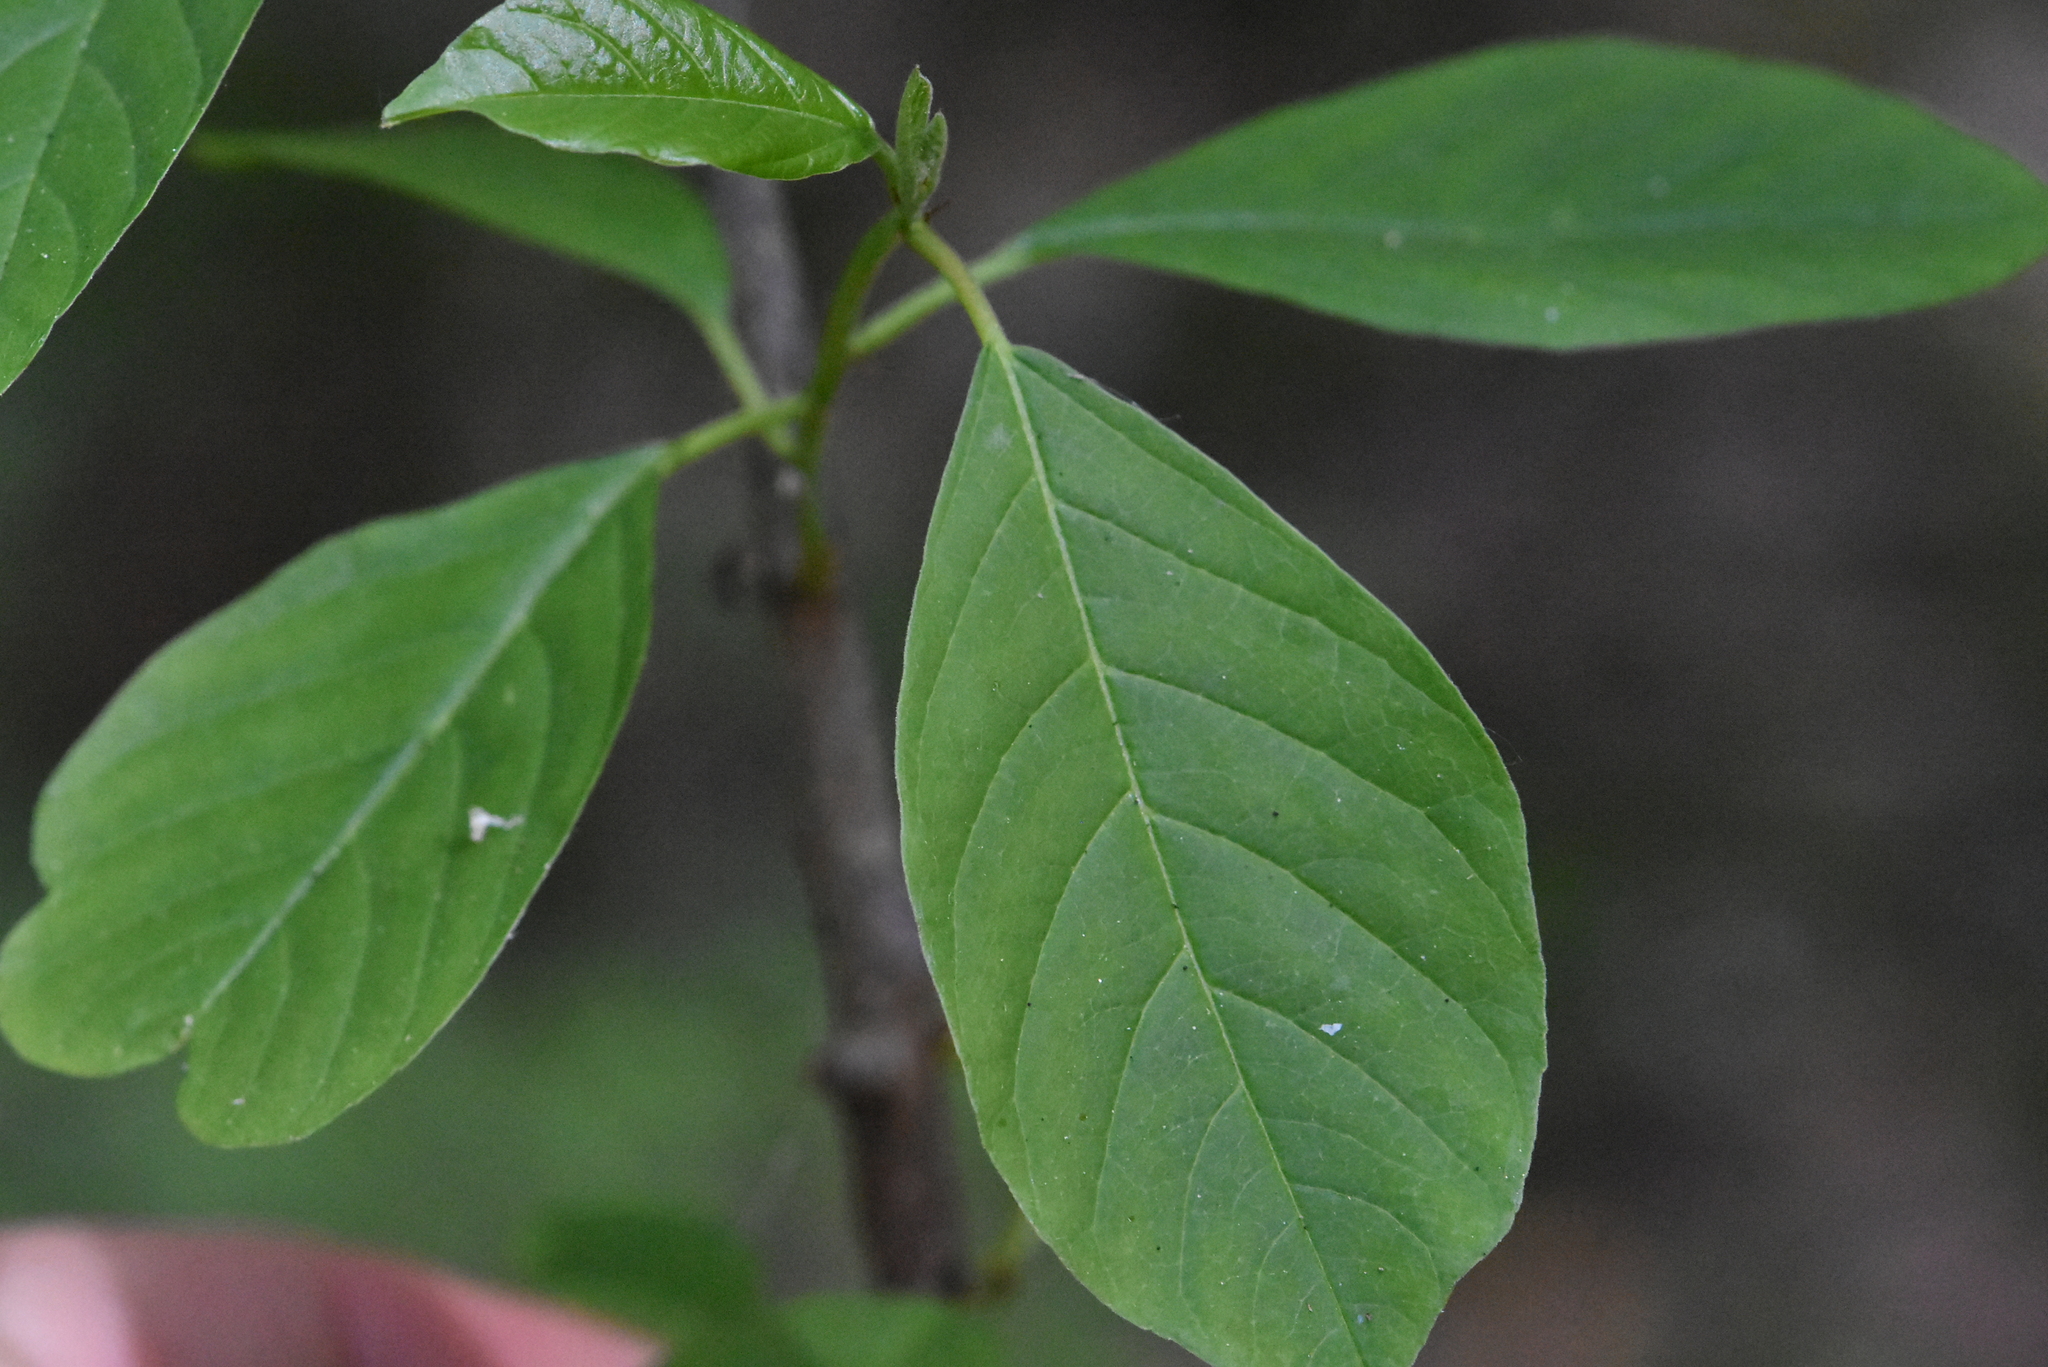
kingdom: Plantae
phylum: Tracheophyta
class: Magnoliopsida
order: Rosales
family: Rhamnaceae
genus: Frangula
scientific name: Frangula alnus
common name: Alder buckthorn
